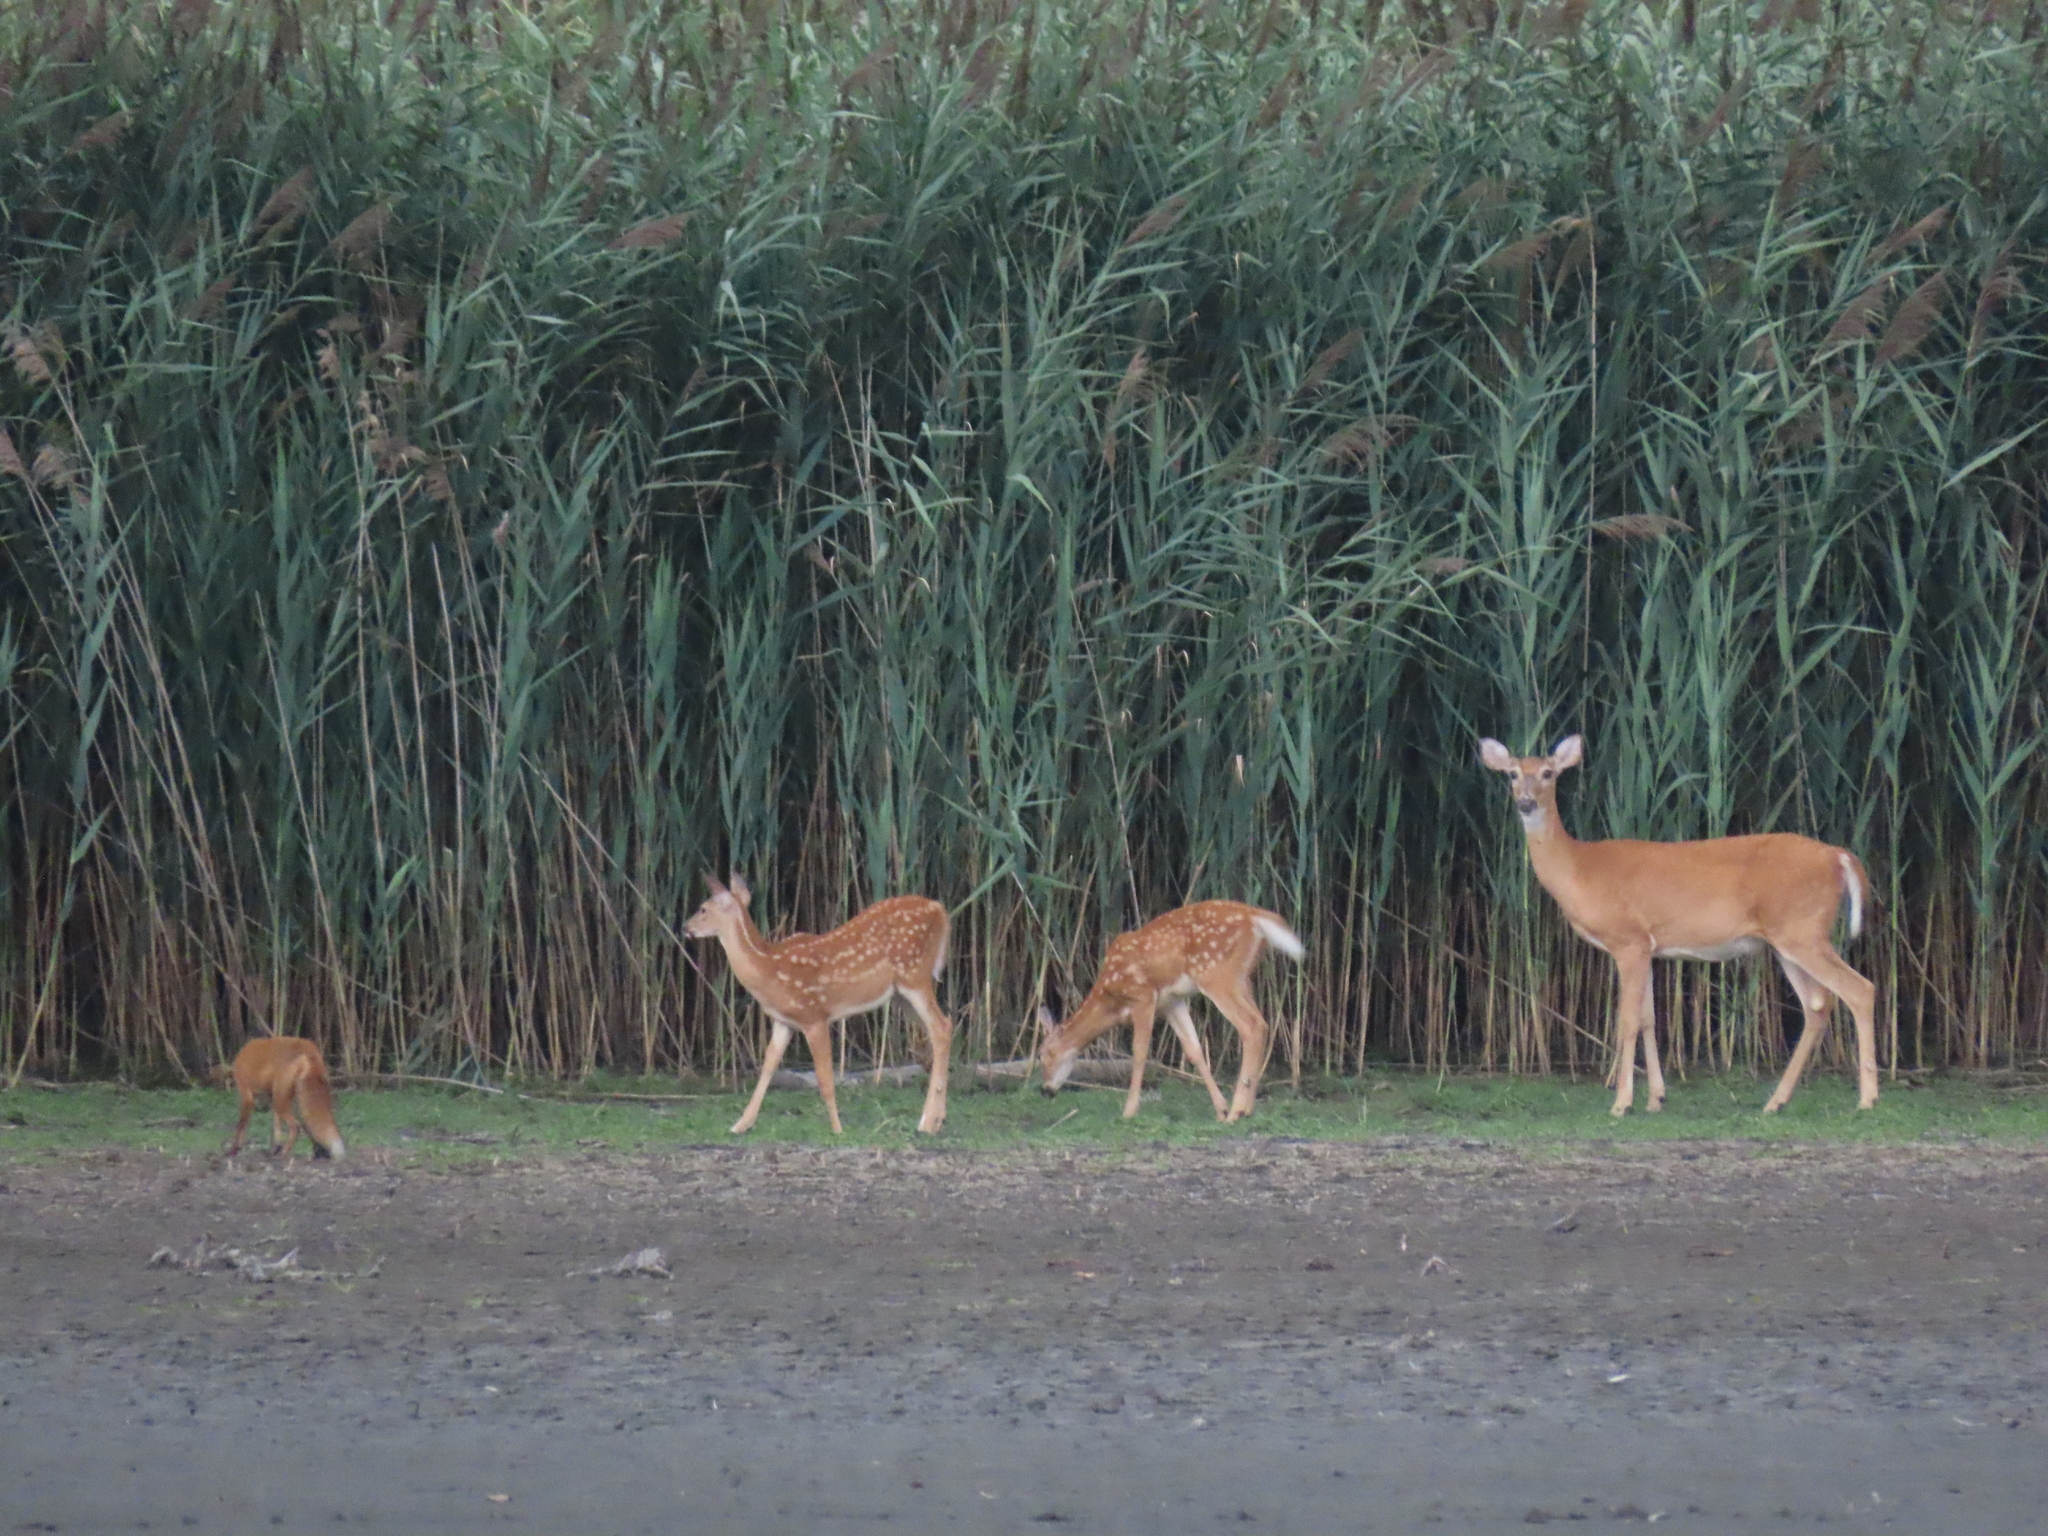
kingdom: Animalia
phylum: Chordata
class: Mammalia
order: Artiodactyla
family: Cervidae
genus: Odocoileus
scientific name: Odocoileus virginianus
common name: White-tailed deer
